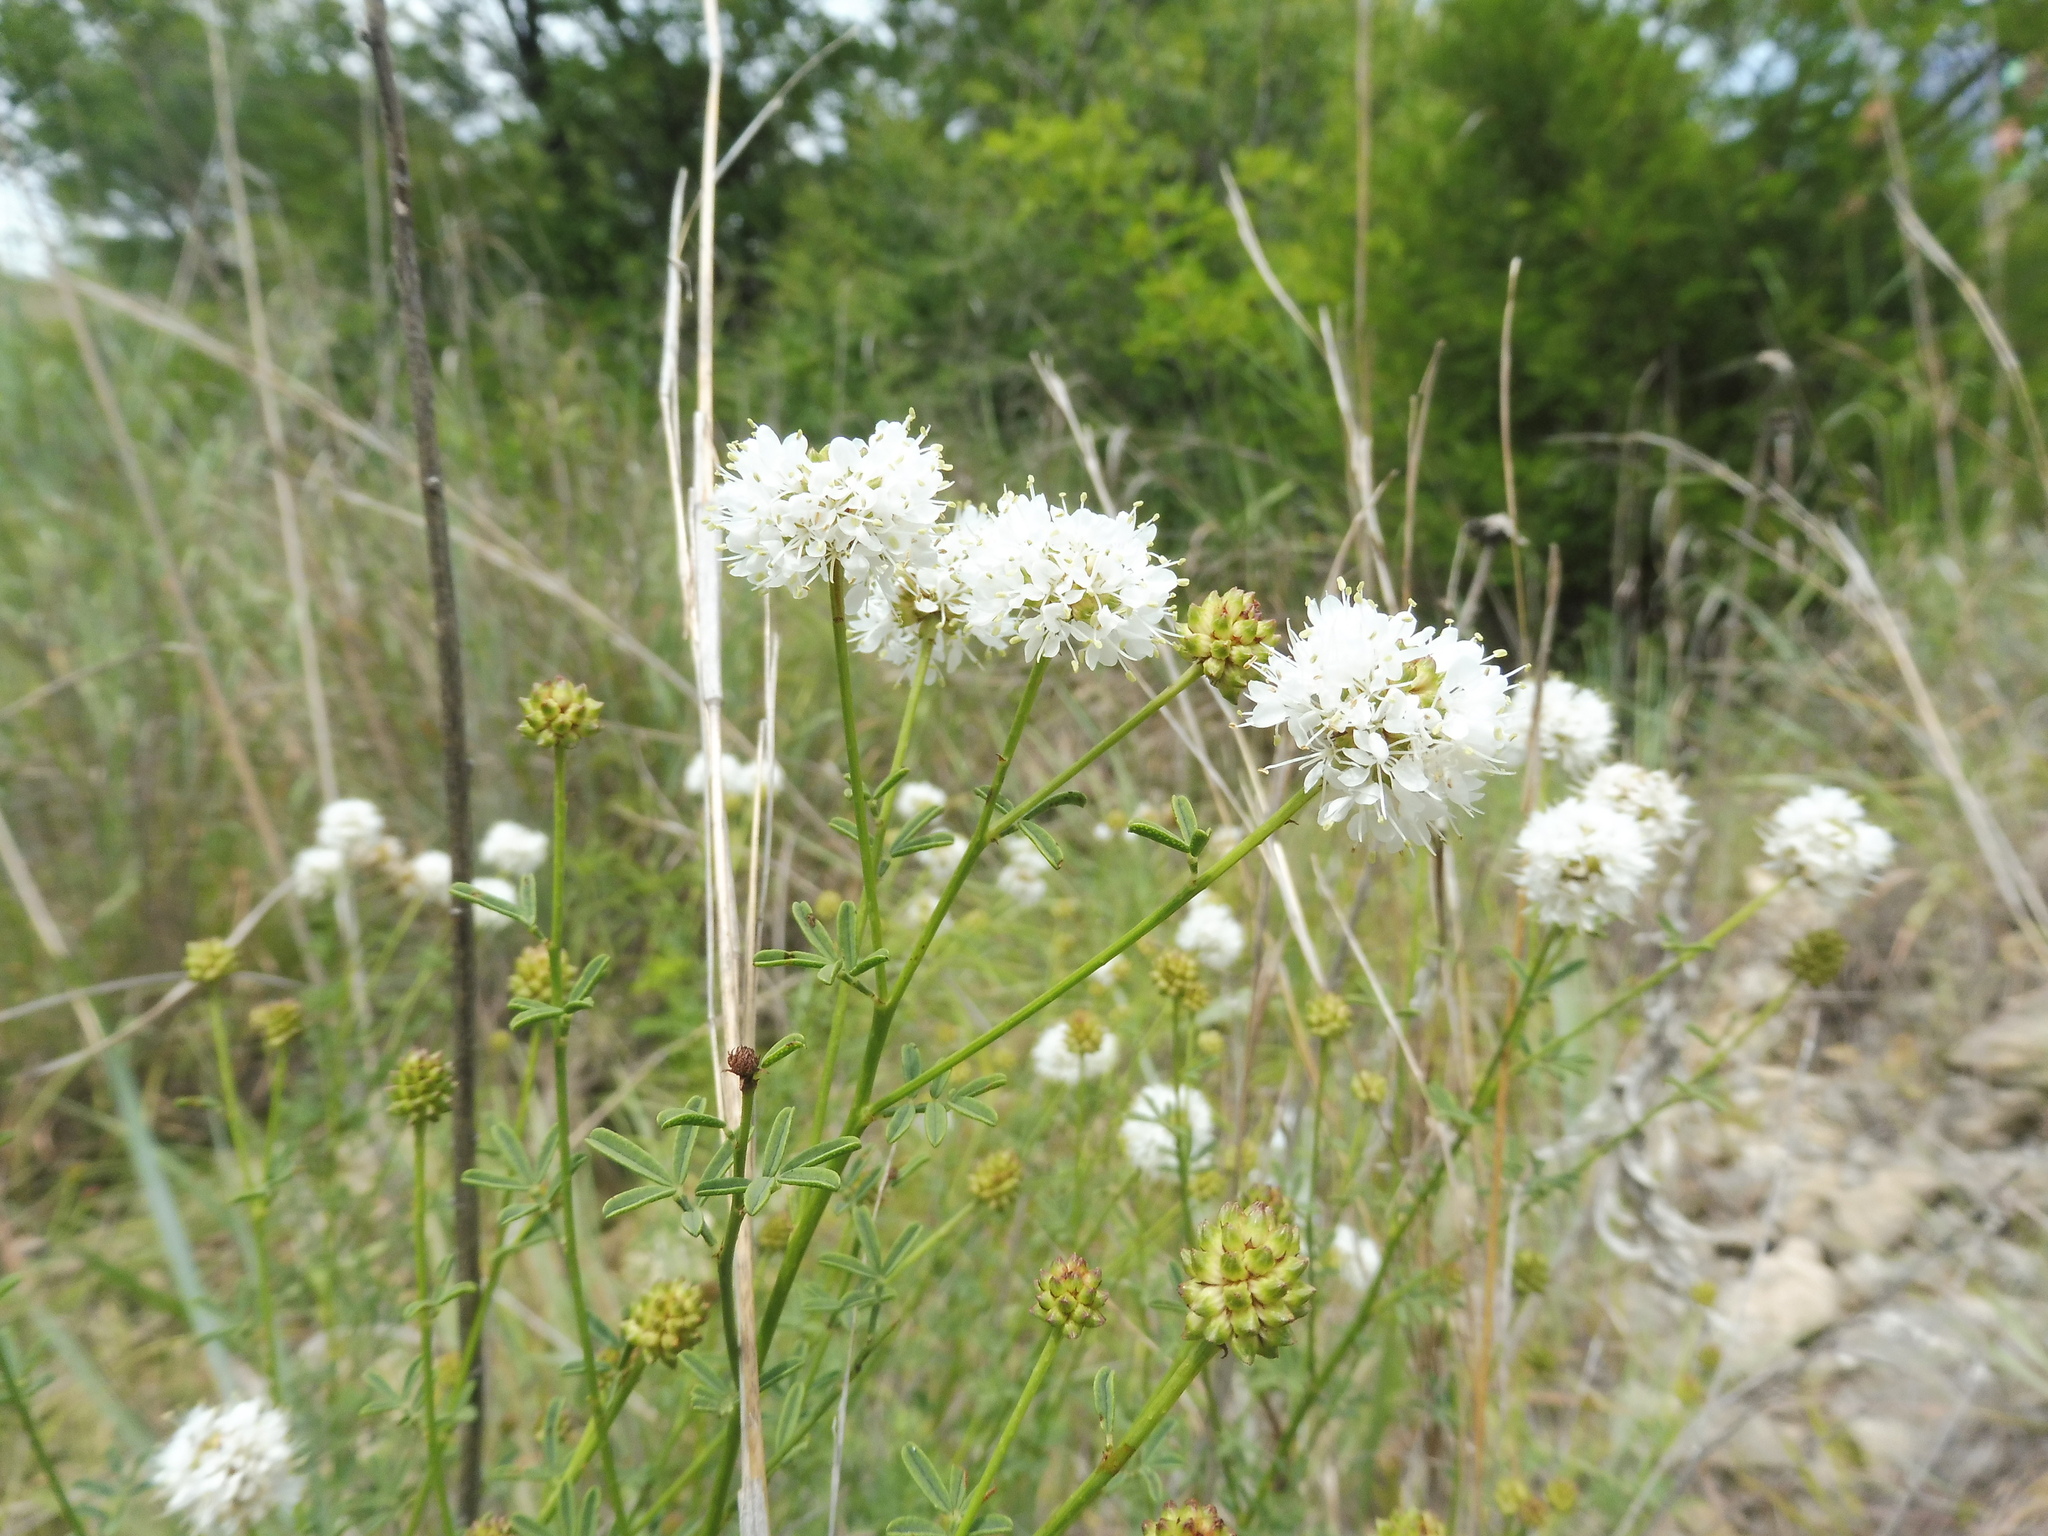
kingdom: Plantae
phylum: Tracheophyta
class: Magnoliopsida
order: Fabales
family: Fabaceae
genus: Dalea
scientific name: Dalea multiflora
